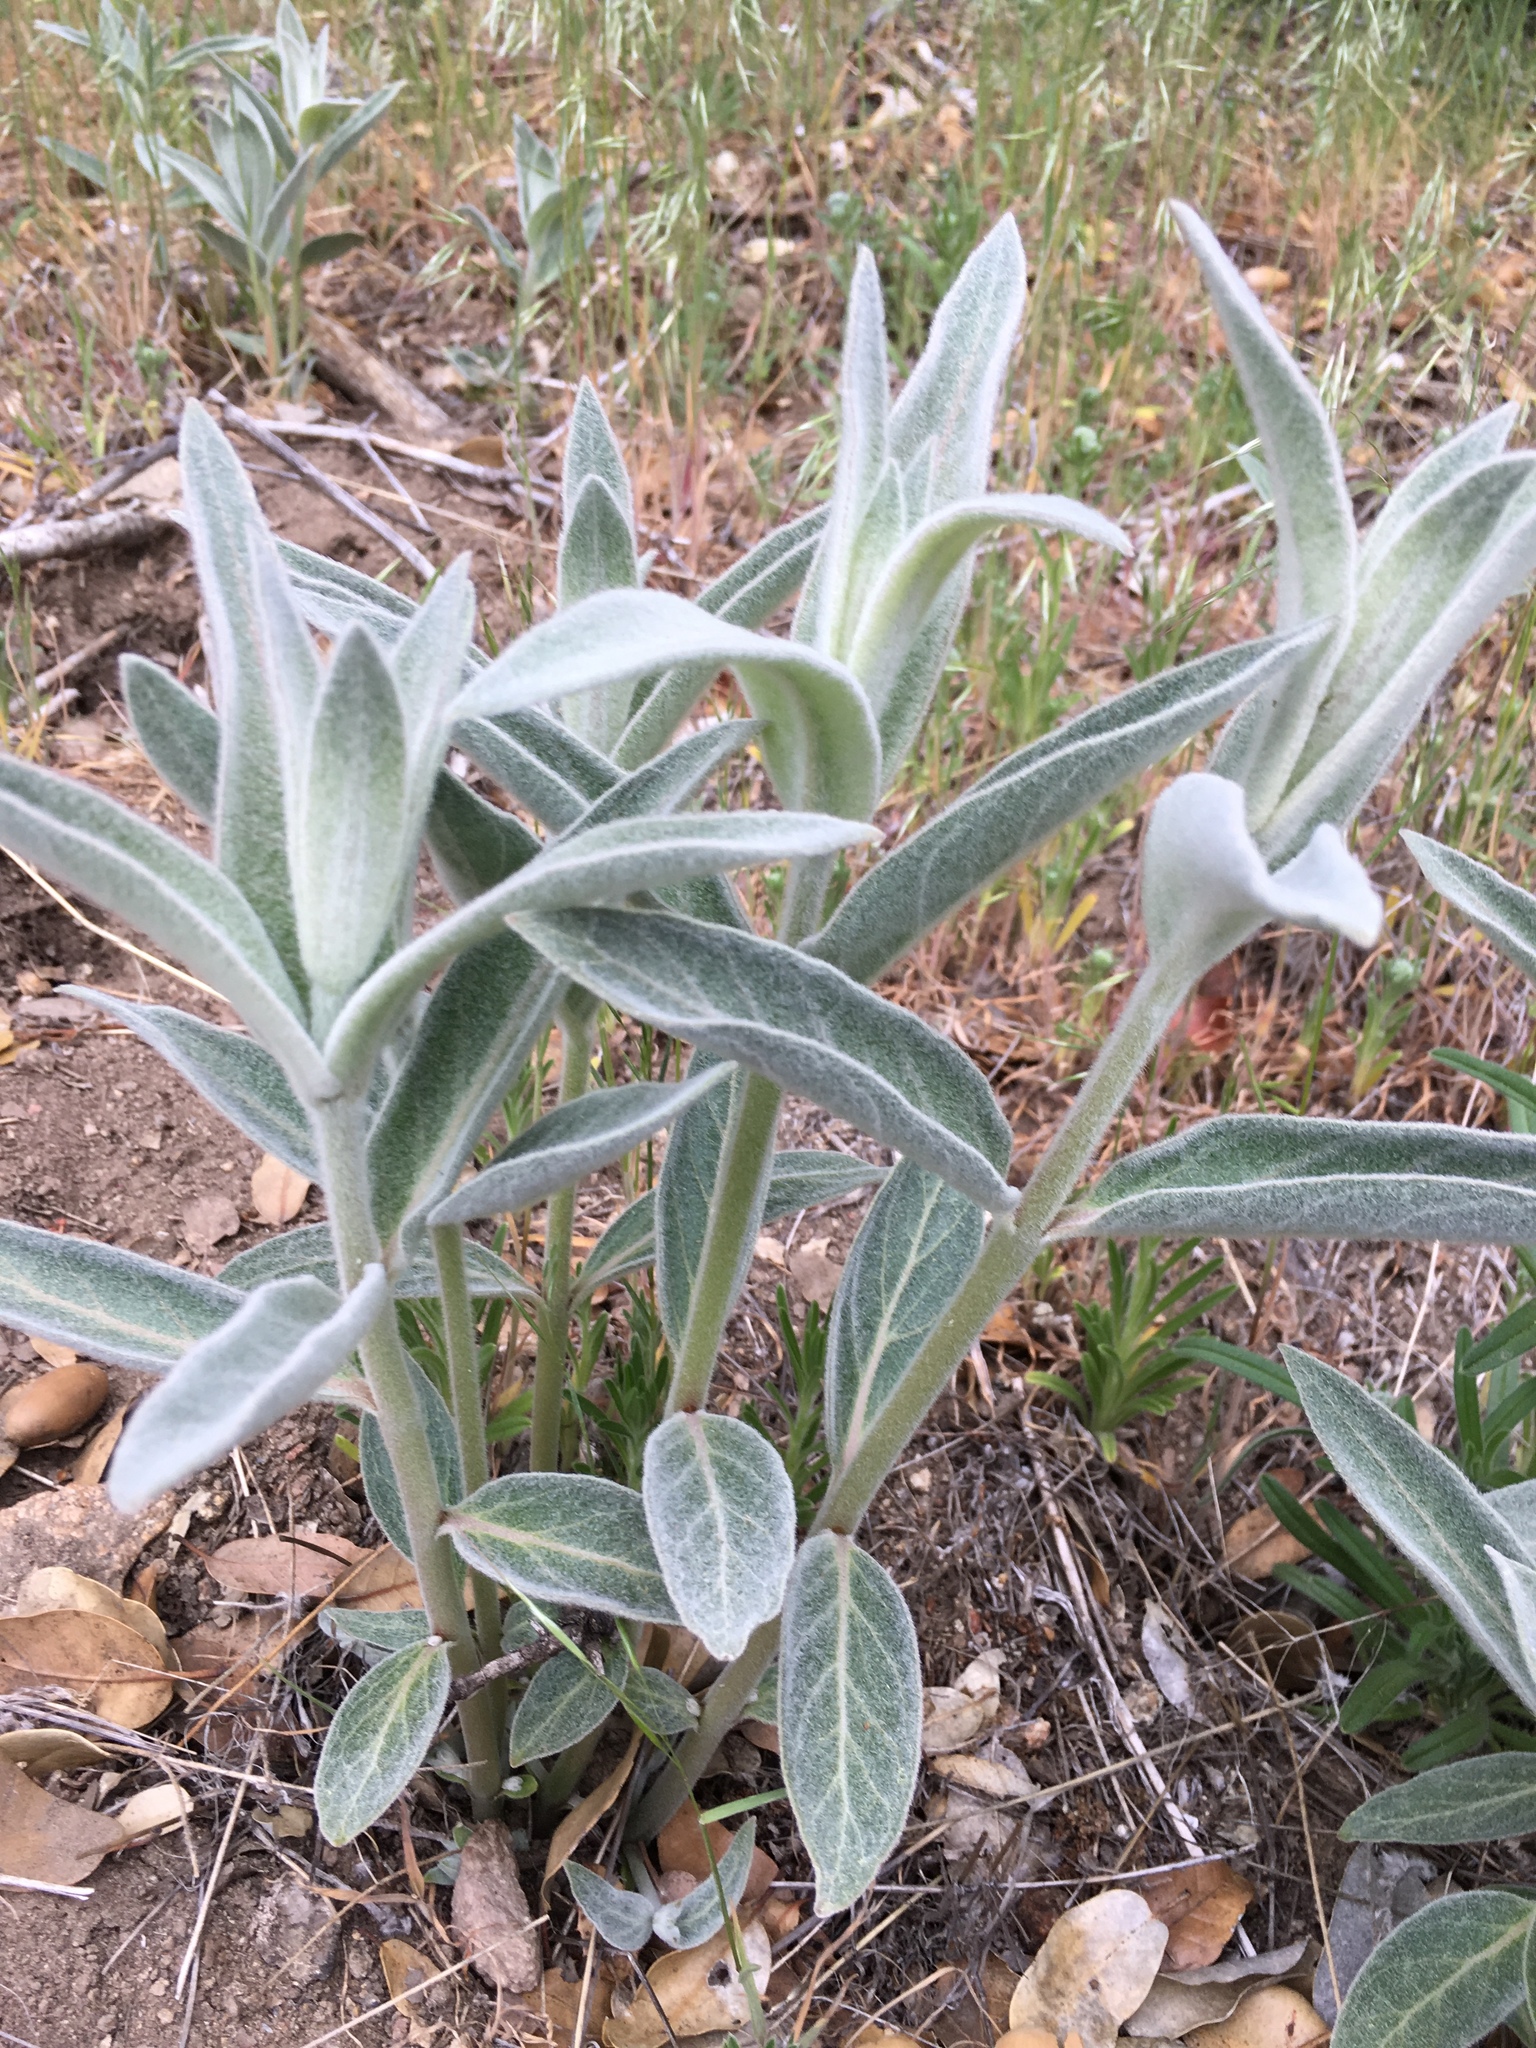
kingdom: Plantae
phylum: Tracheophyta
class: Magnoliopsida
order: Gentianales
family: Apocynaceae
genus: Asclepias
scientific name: Asclepias eriocarpa
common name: Indian milkweed
